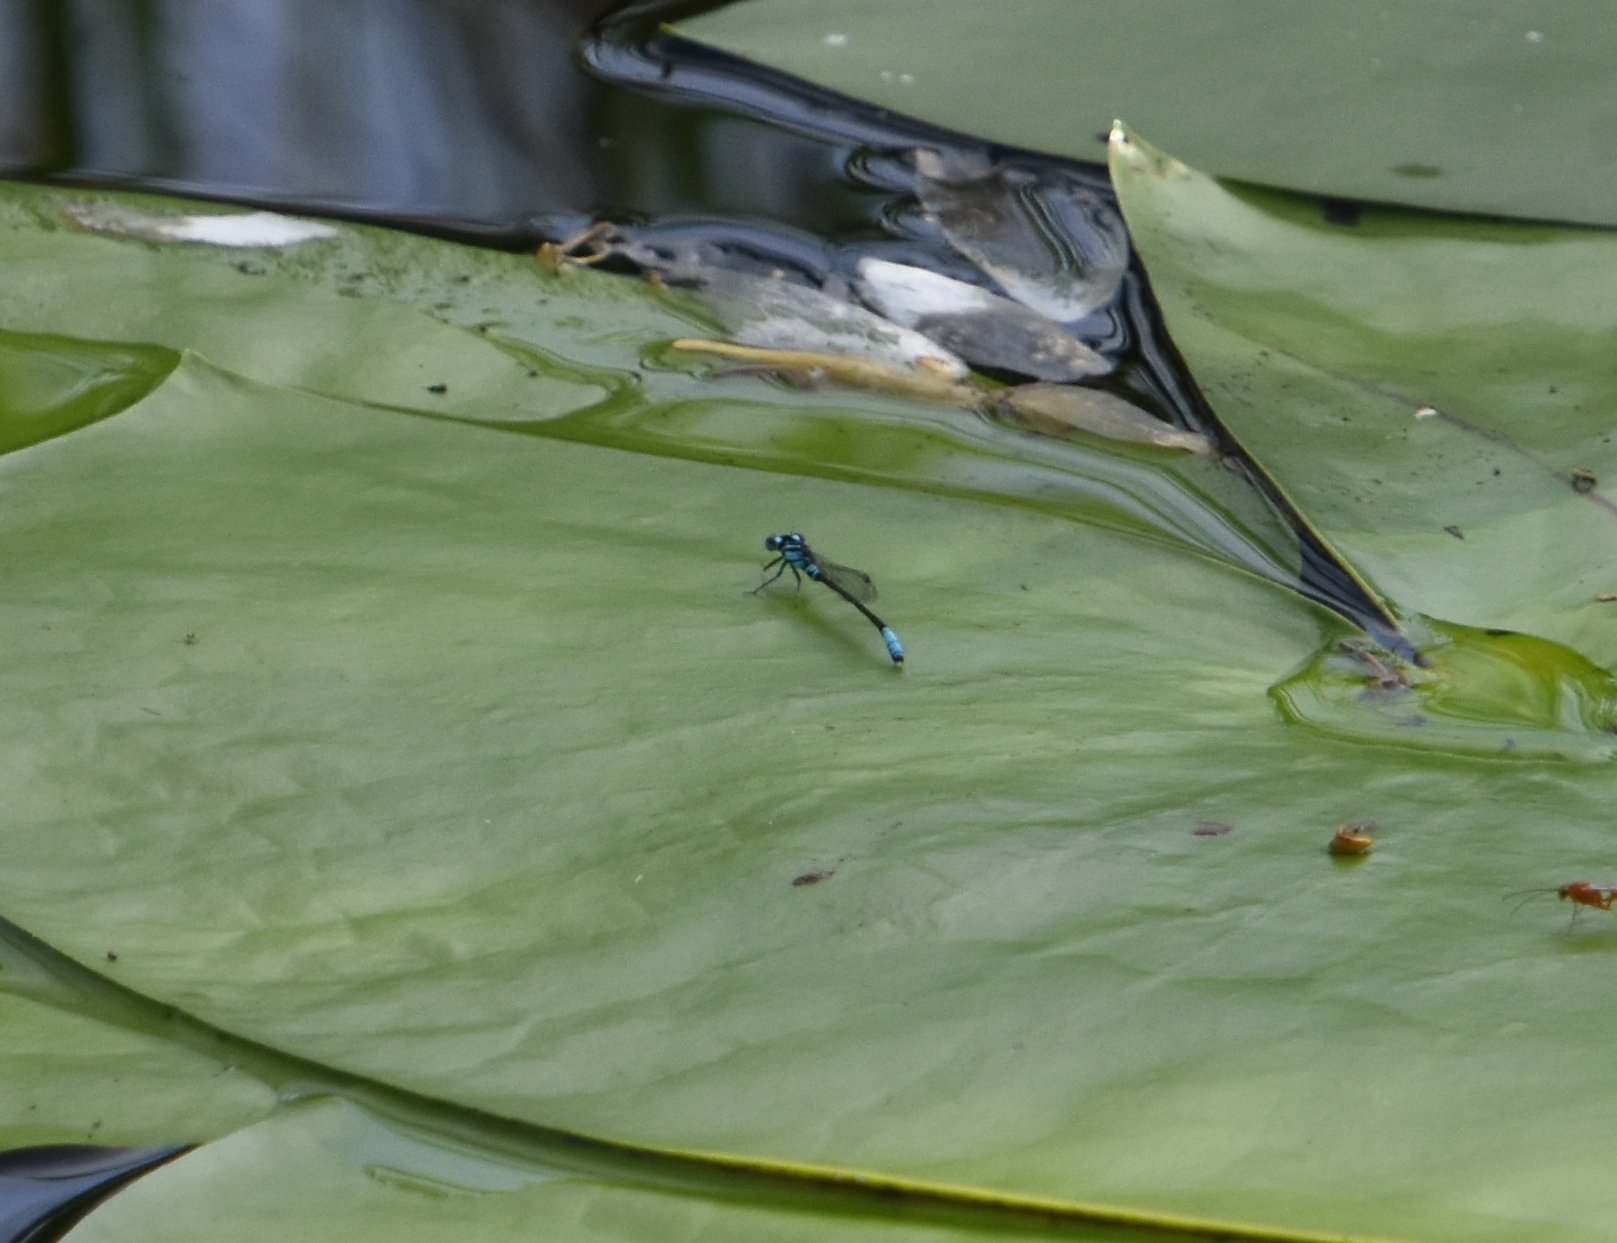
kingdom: Animalia
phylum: Arthropoda
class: Insecta
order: Odonata
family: Coenagrionidae
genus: Ischnura
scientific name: Ischnura kellicotti
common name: Lilypad forktail
